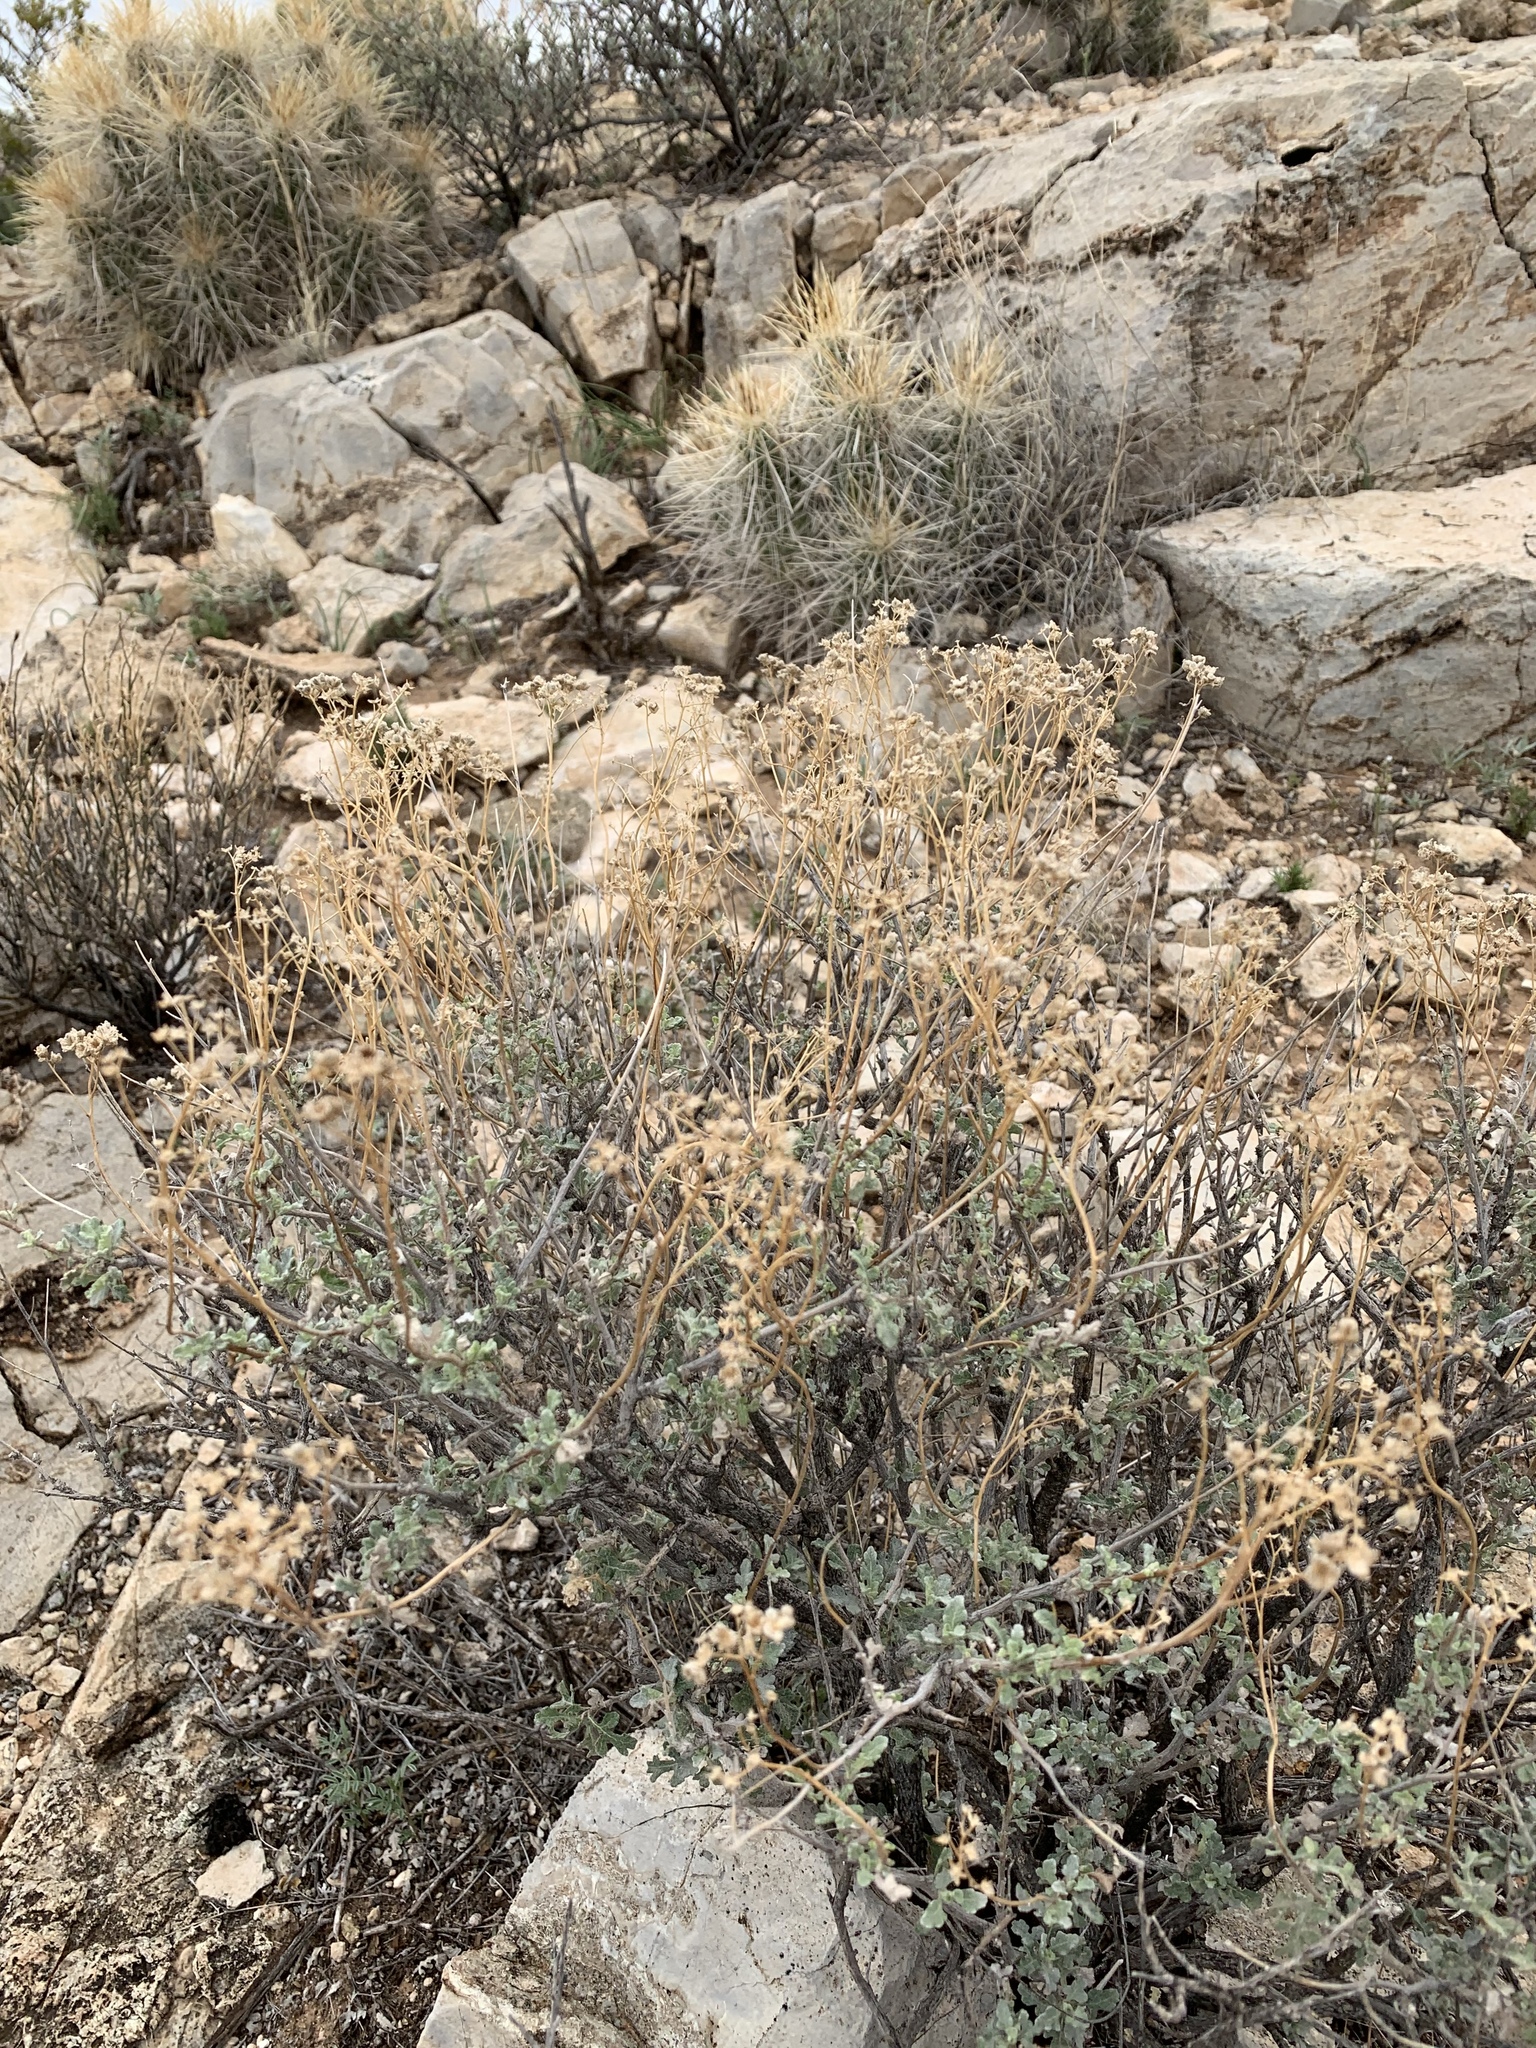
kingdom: Plantae
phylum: Tracheophyta
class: Magnoliopsida
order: Asterales
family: Asteraceae
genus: Parthenium
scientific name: Parthenium incanum
